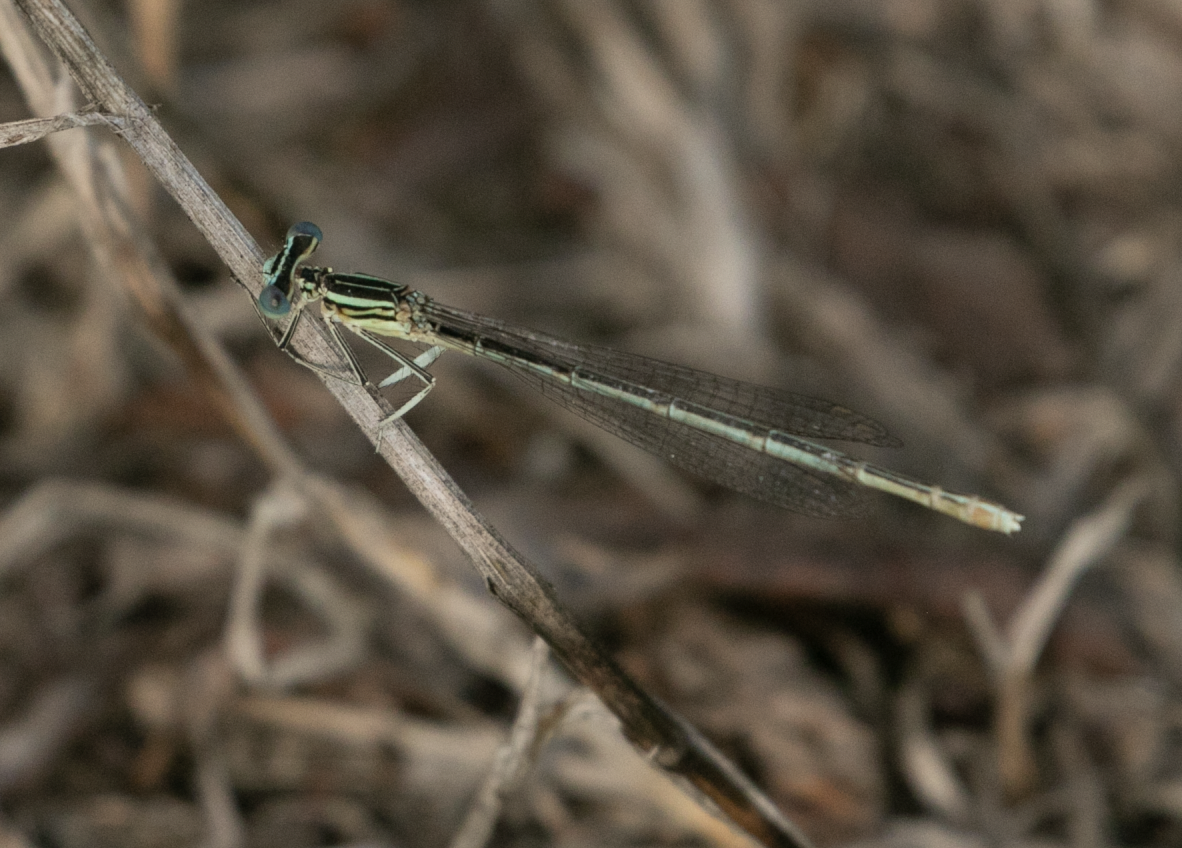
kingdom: Animalia
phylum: Arthropoda
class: Insecta
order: Odonata
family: Platycnemididae
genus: Platycnemis
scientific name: Platycnemis pennipes
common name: White-legged damselfly
